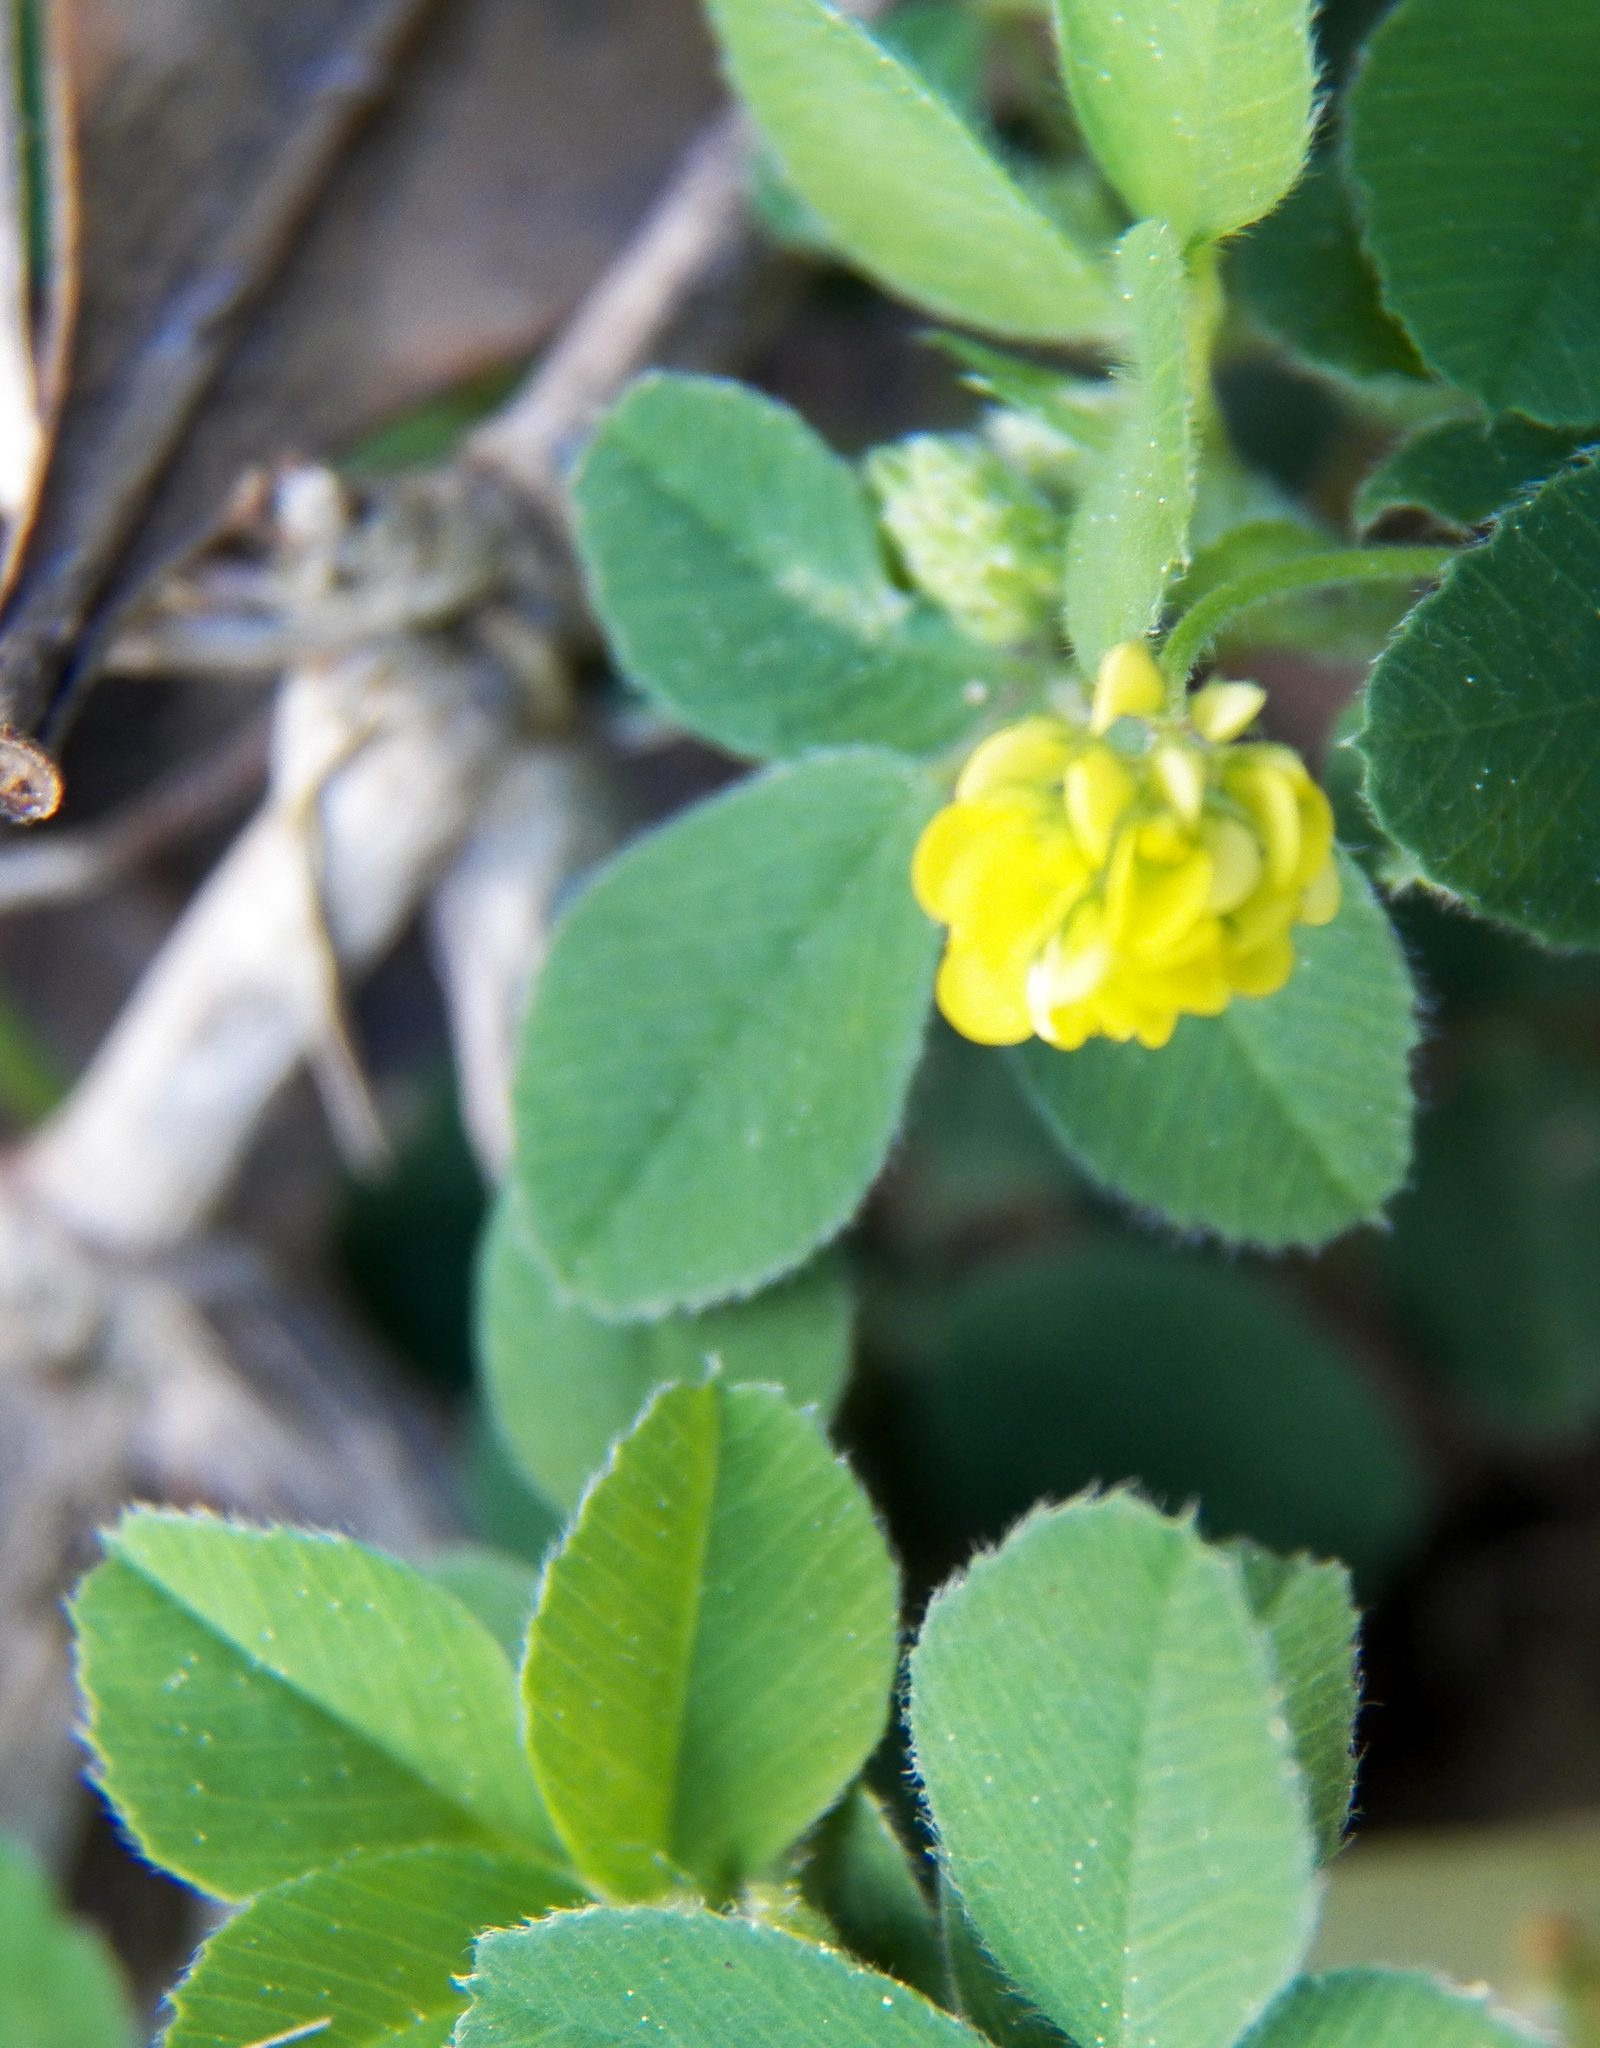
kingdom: Plantae
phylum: Tracheophyta
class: Magnoliopsida
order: Fabales
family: Fabaceae
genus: Medicago
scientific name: Medicago lupulina
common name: Black medick
